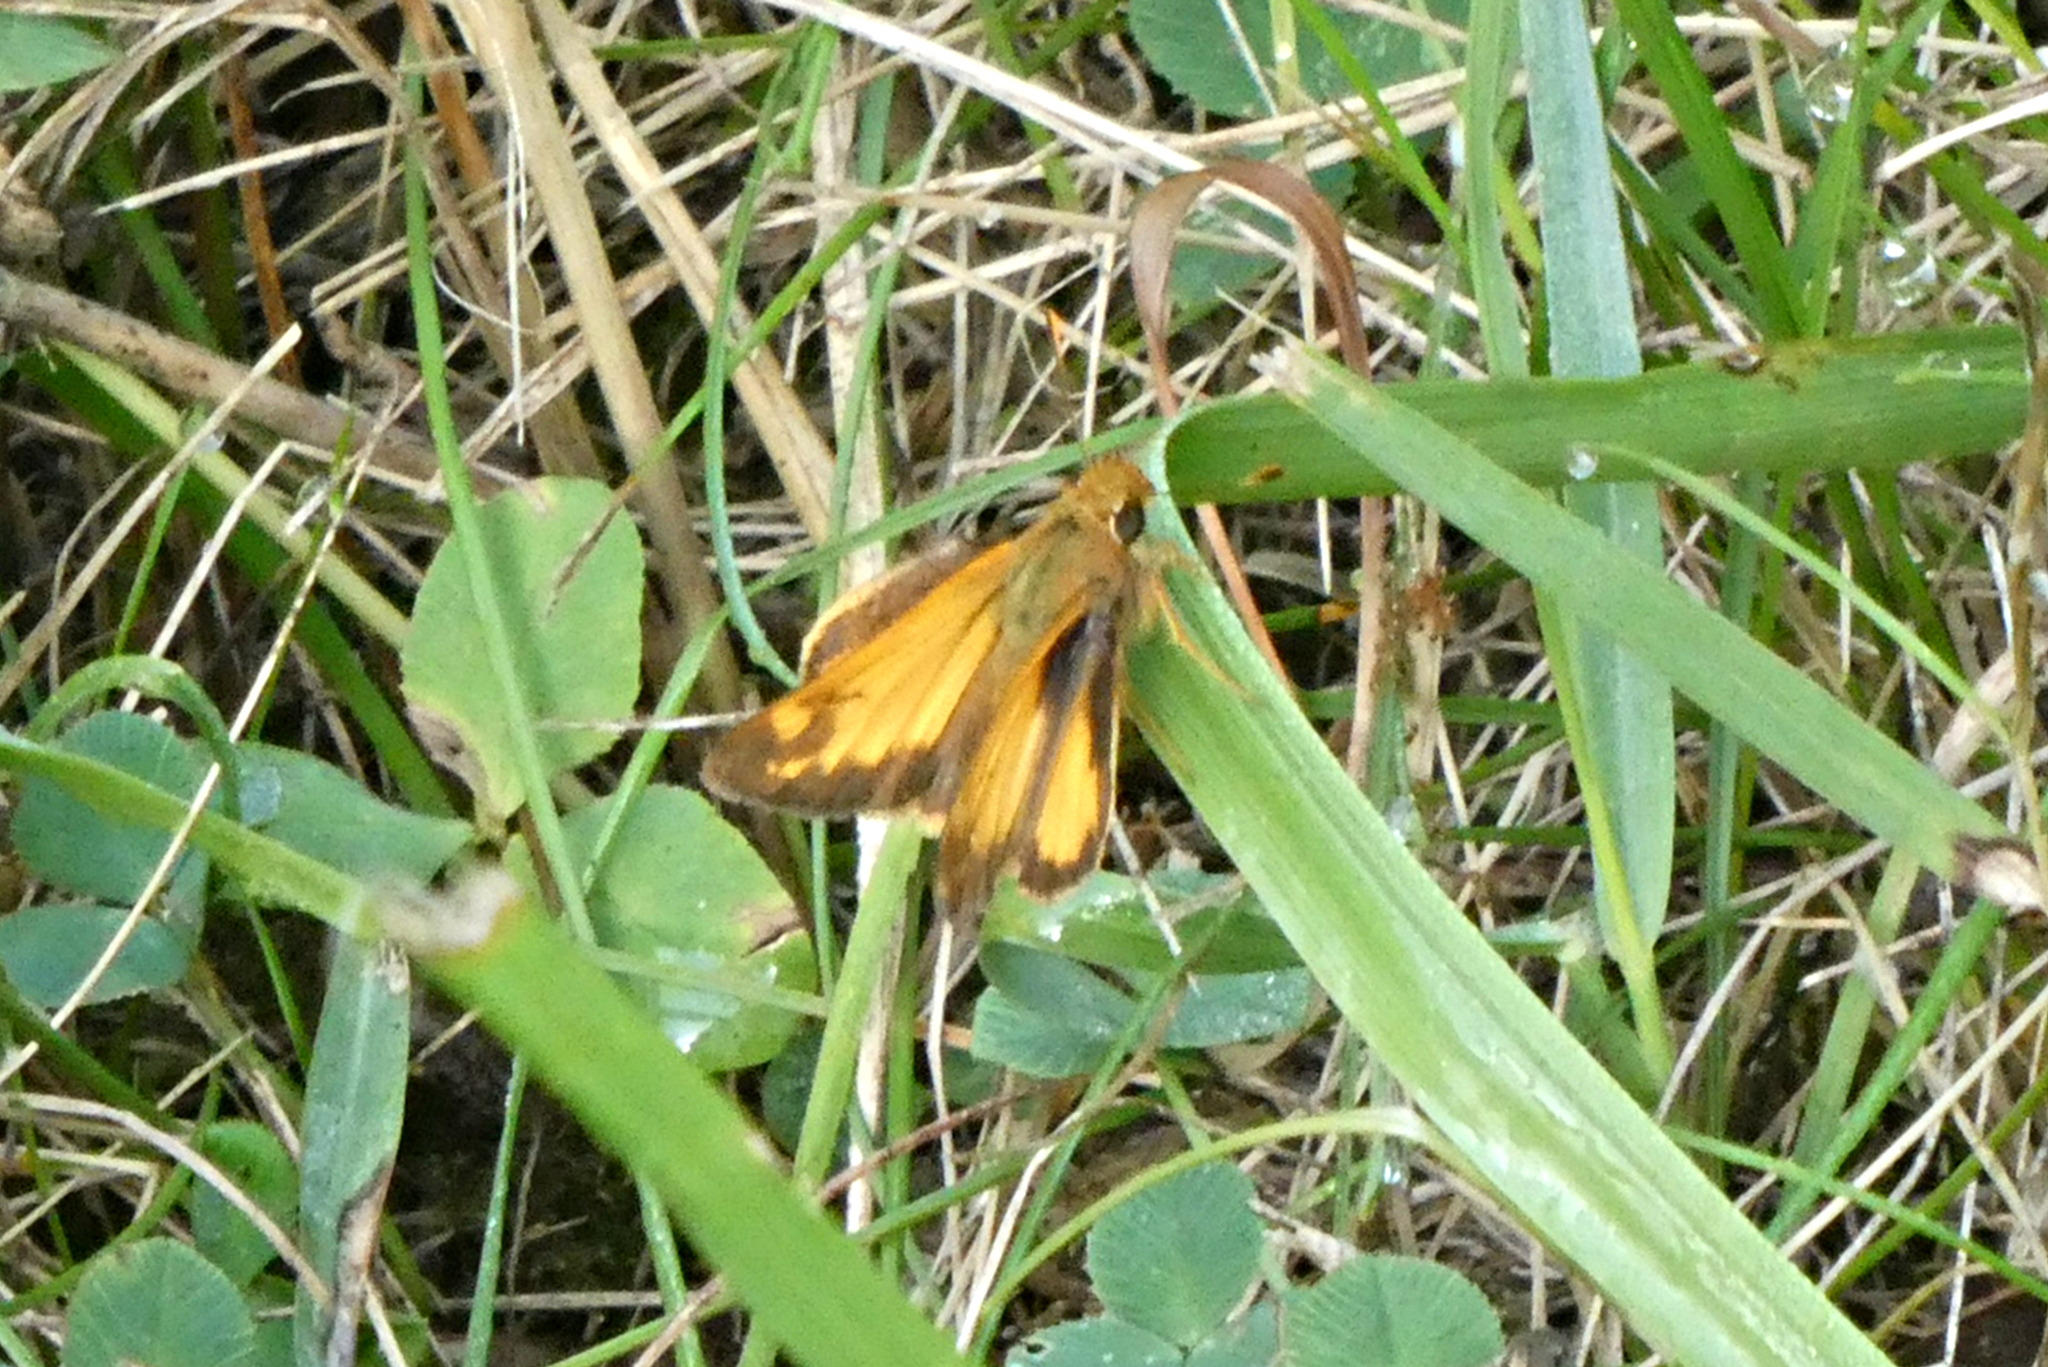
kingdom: Animalia
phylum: Arthropoda
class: Insecta
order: Lepidoptera
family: Hesperiidae
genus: Lon
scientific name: Lon zabulon
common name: Zabulon skipper
